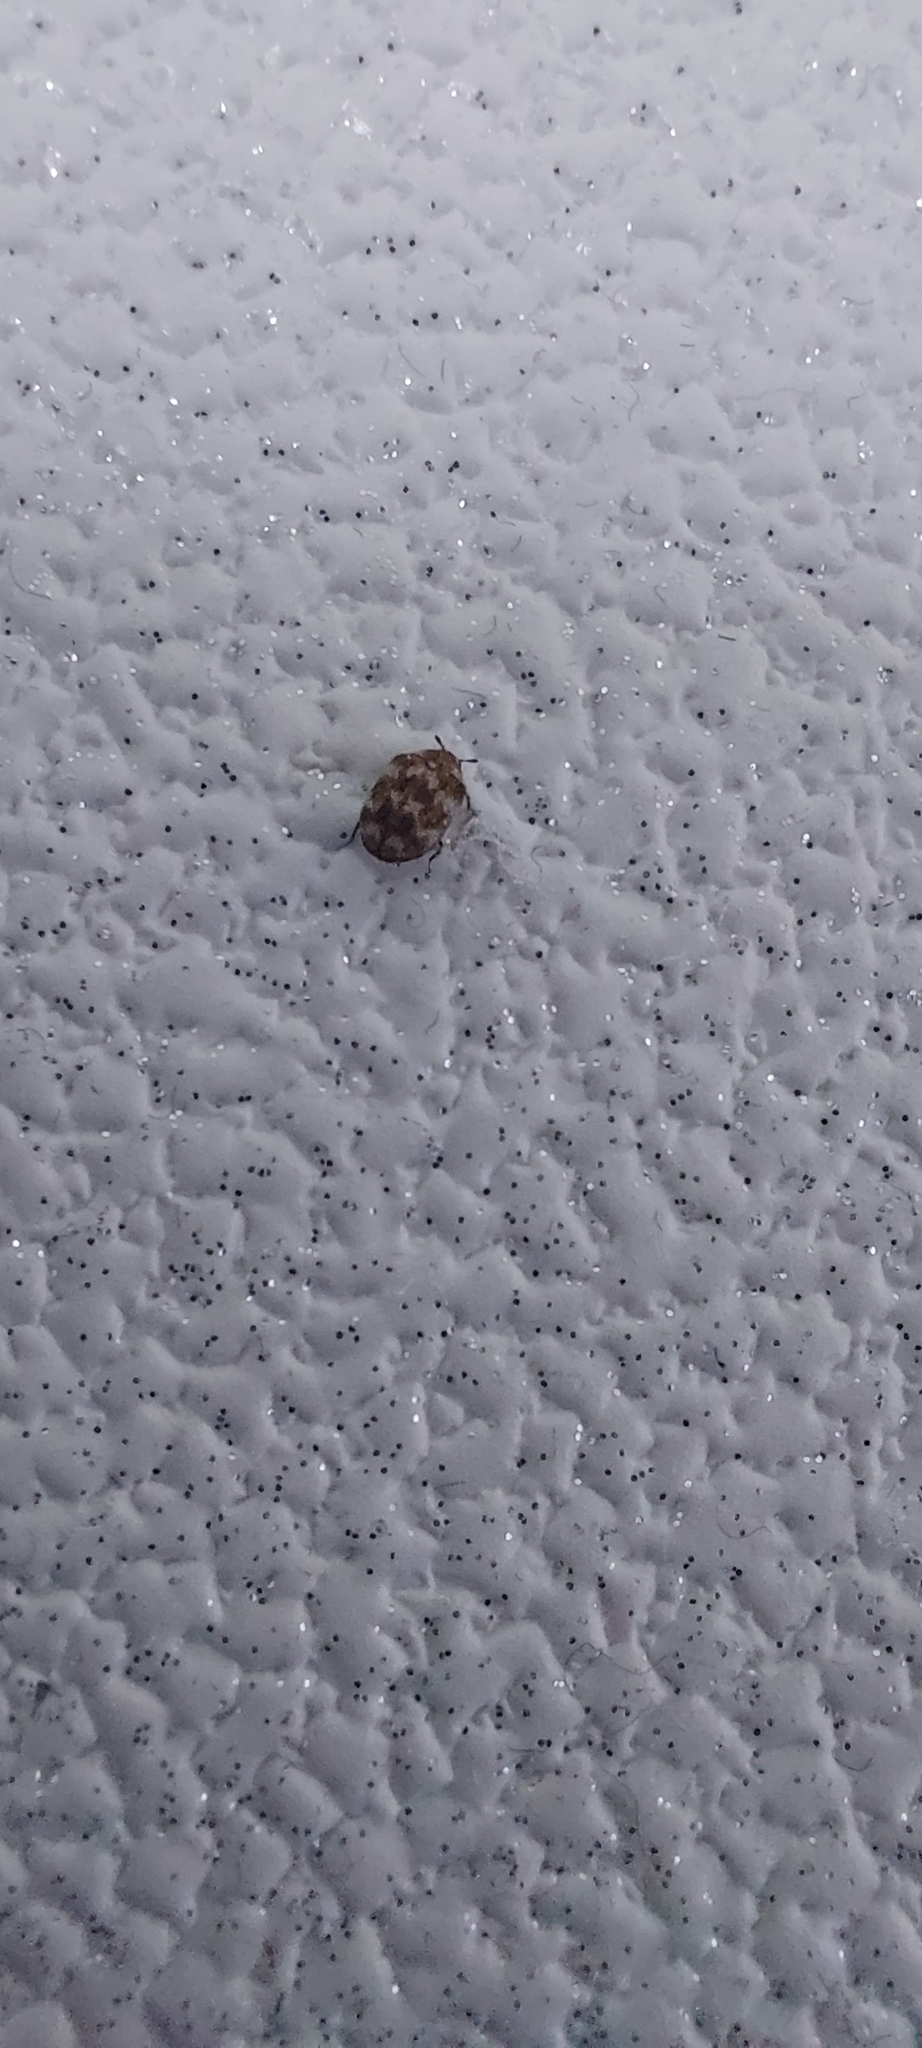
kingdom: Animalia
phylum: Arthropoda
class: Insecta
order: Coleoptera
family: Dermestidae
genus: Anthrenus
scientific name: Anthrenus verbasci
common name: Varied carpet beetle
